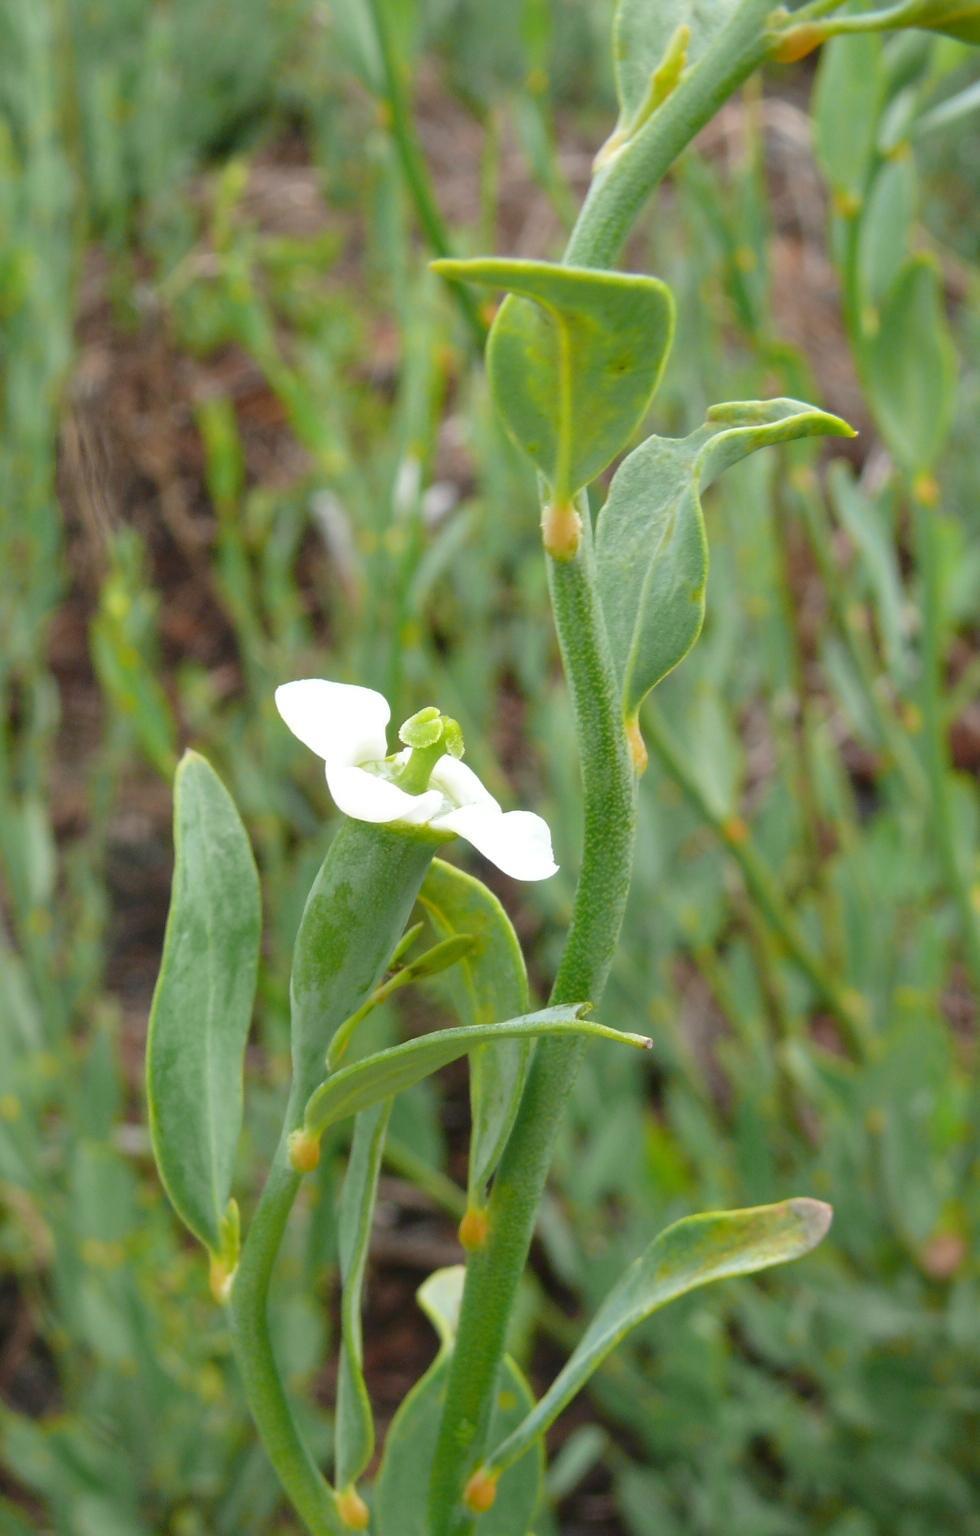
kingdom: Plantae
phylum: Tracheophyta
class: Magnoliopsida
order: Solanales
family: Montiniaceae
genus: Montinia
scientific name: Montinia caryophyllacea
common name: Wild clove-bush
